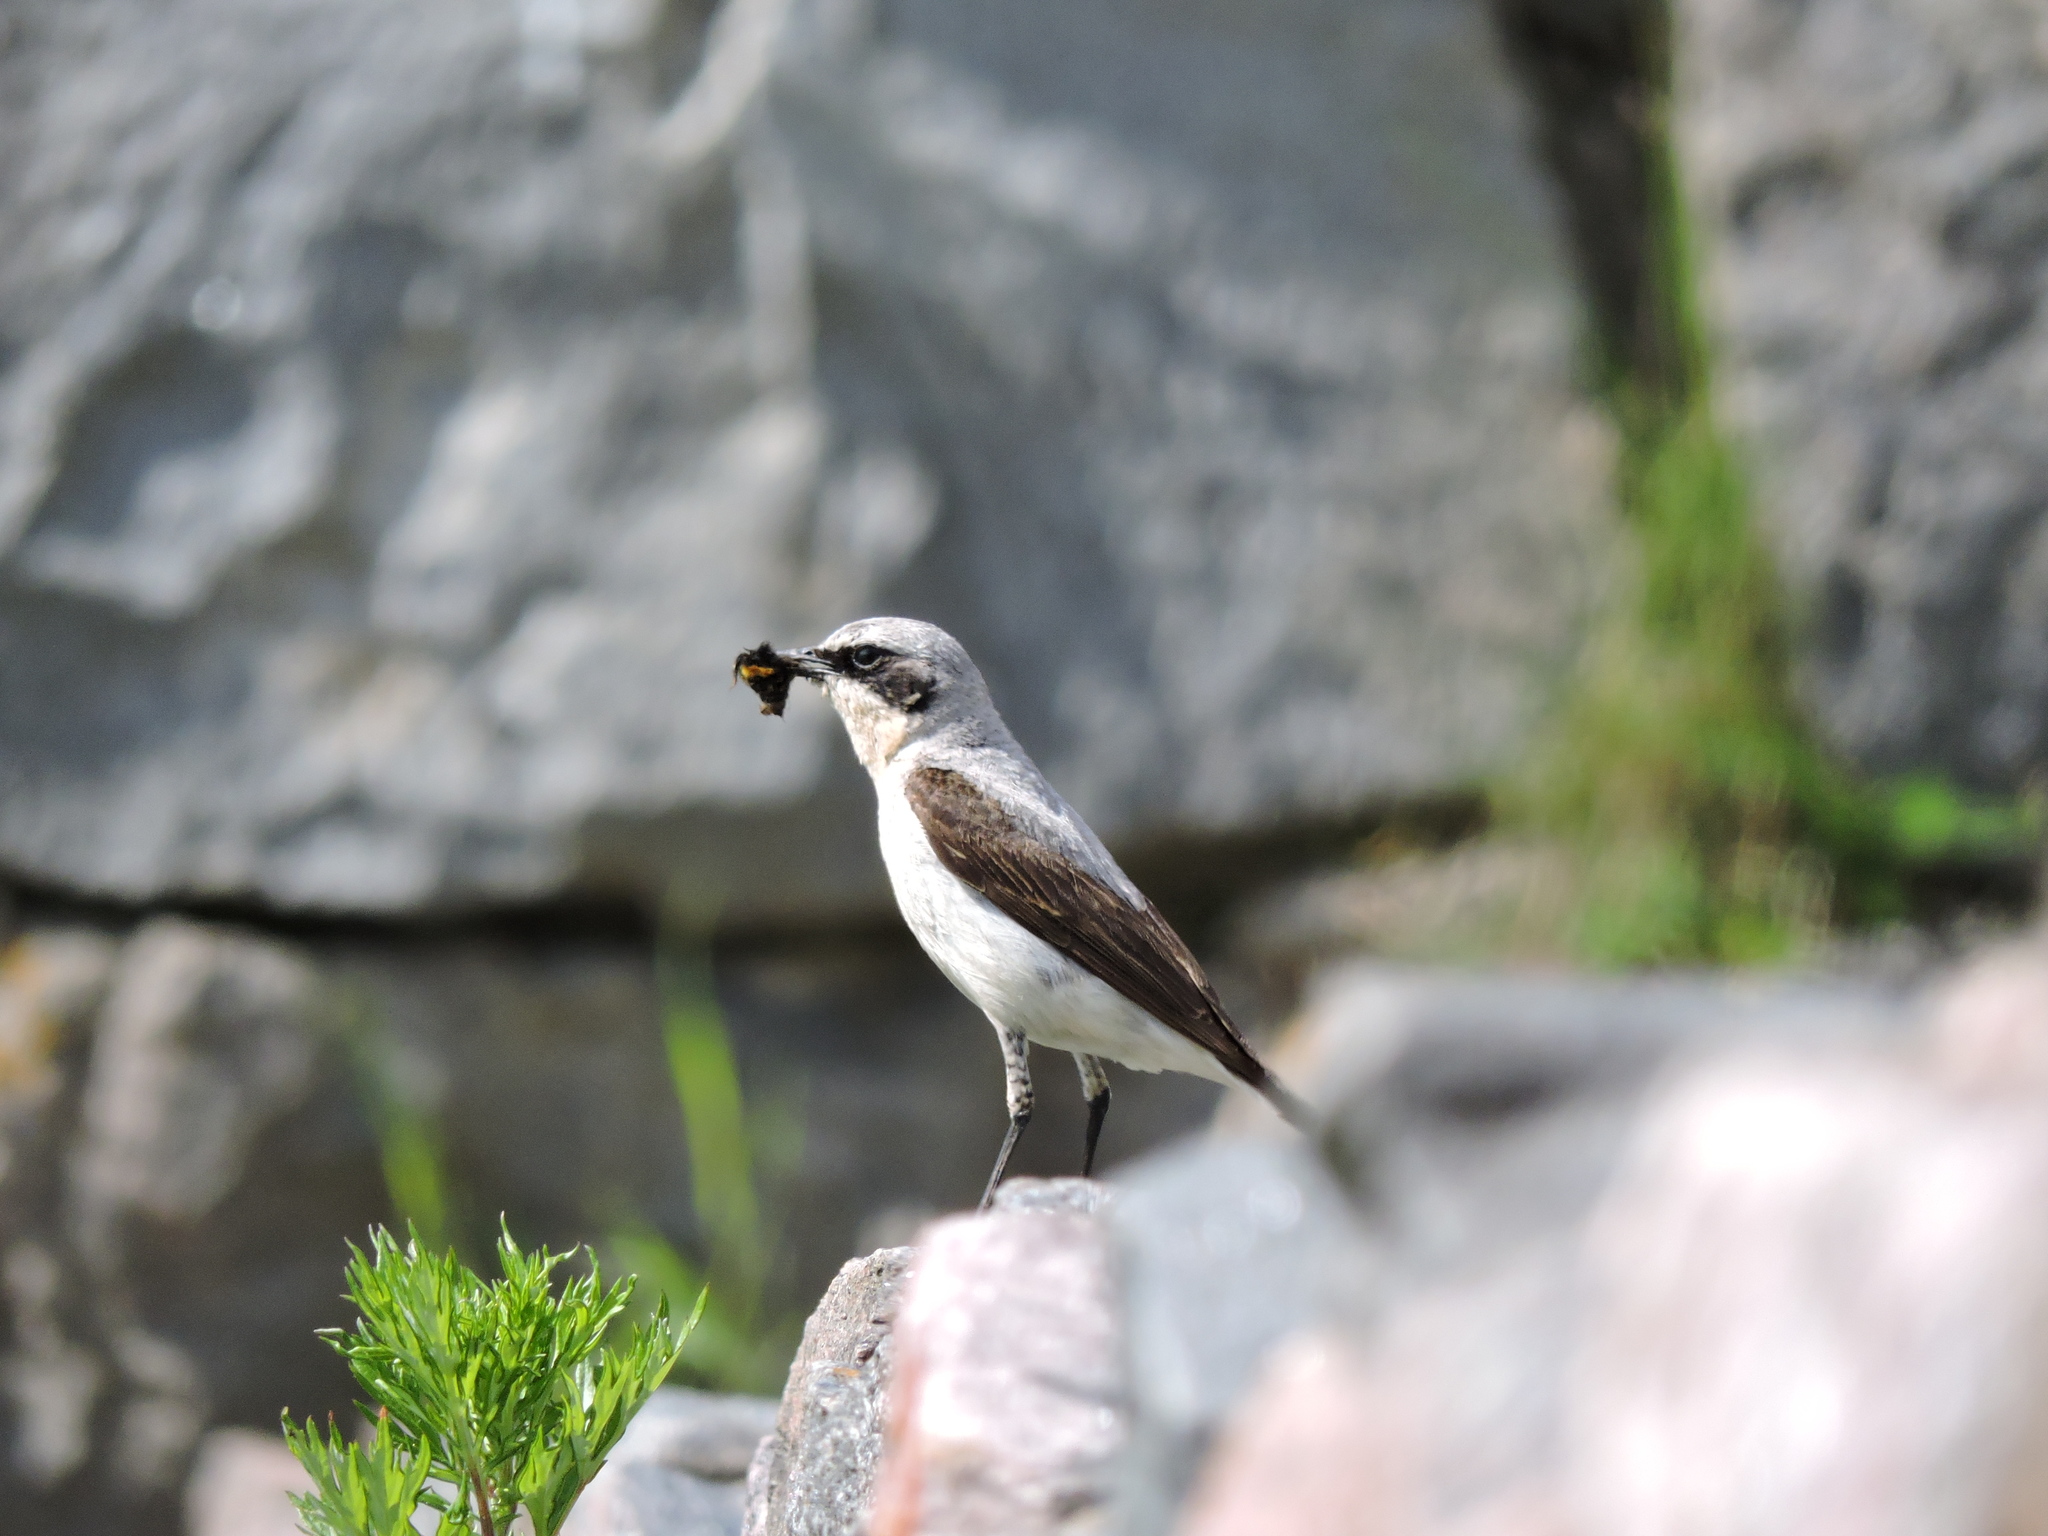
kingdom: Animalia
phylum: Chordata
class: Aves
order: Passeriformes
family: Muscicapidae
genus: Oenanthe
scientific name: Oenanthe oenanthe
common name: Northern wheatear
